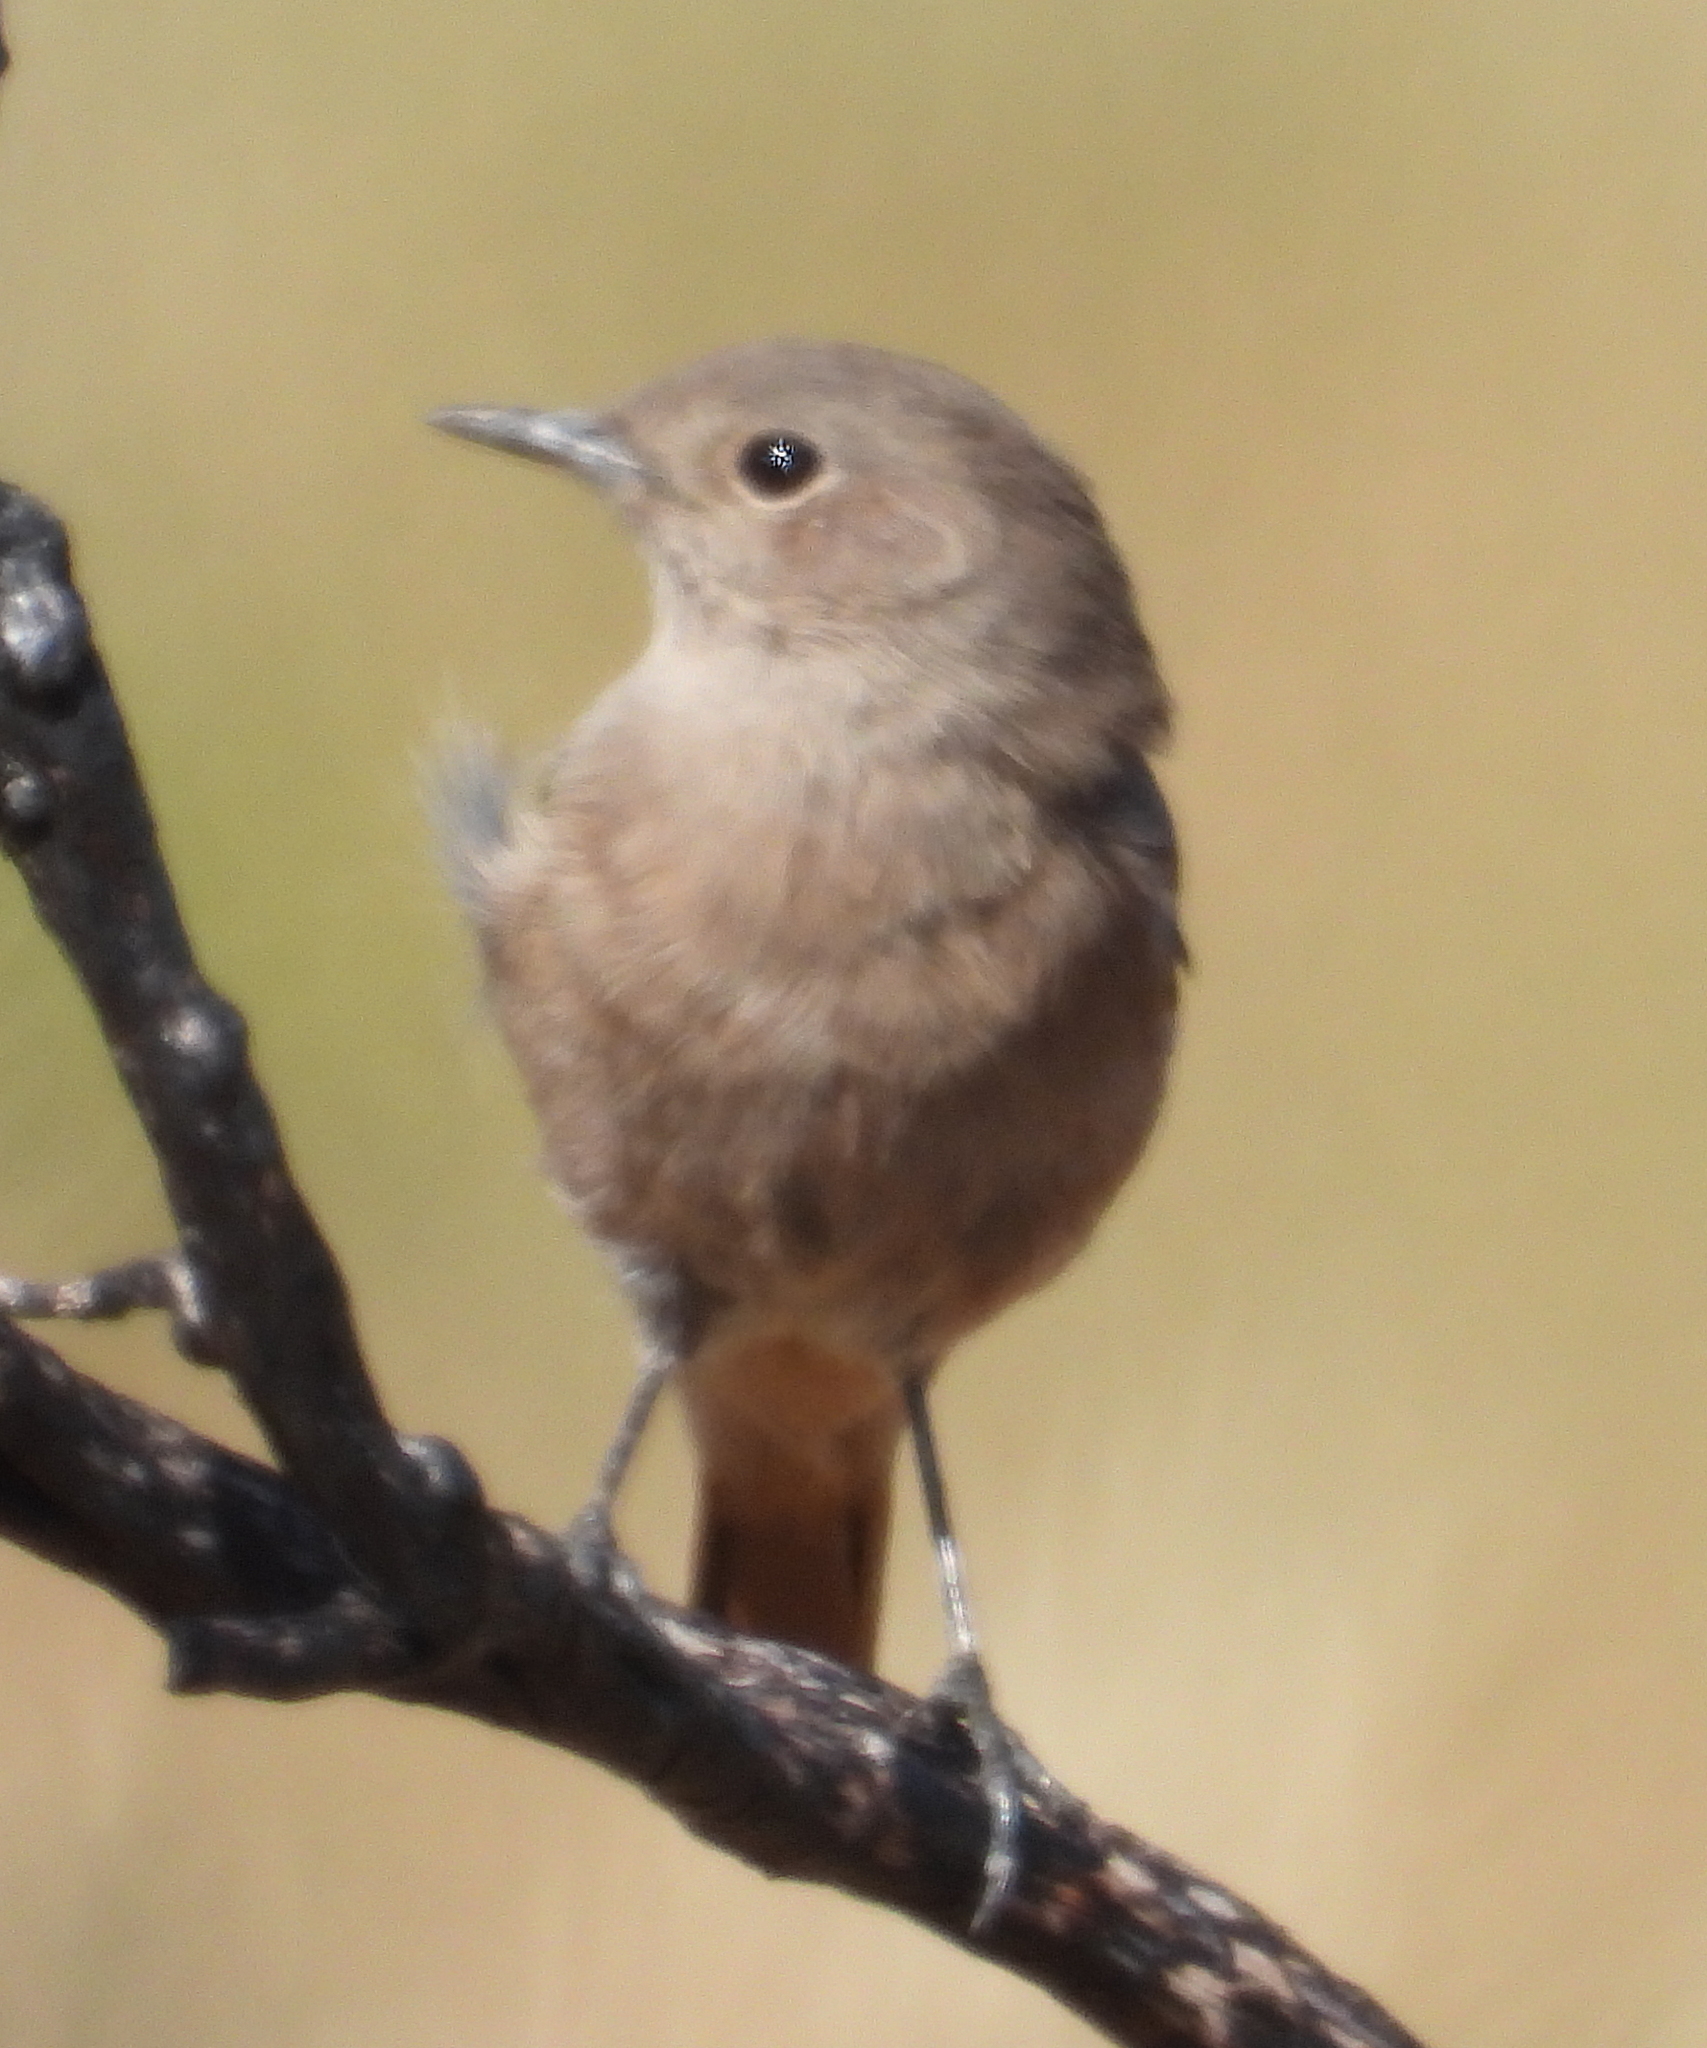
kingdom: Animalia
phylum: Chordata
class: Aves
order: Passeriformes
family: Muscicapidae
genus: Oenanthe
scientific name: Oenanthe familiaris
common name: Familiar chat
